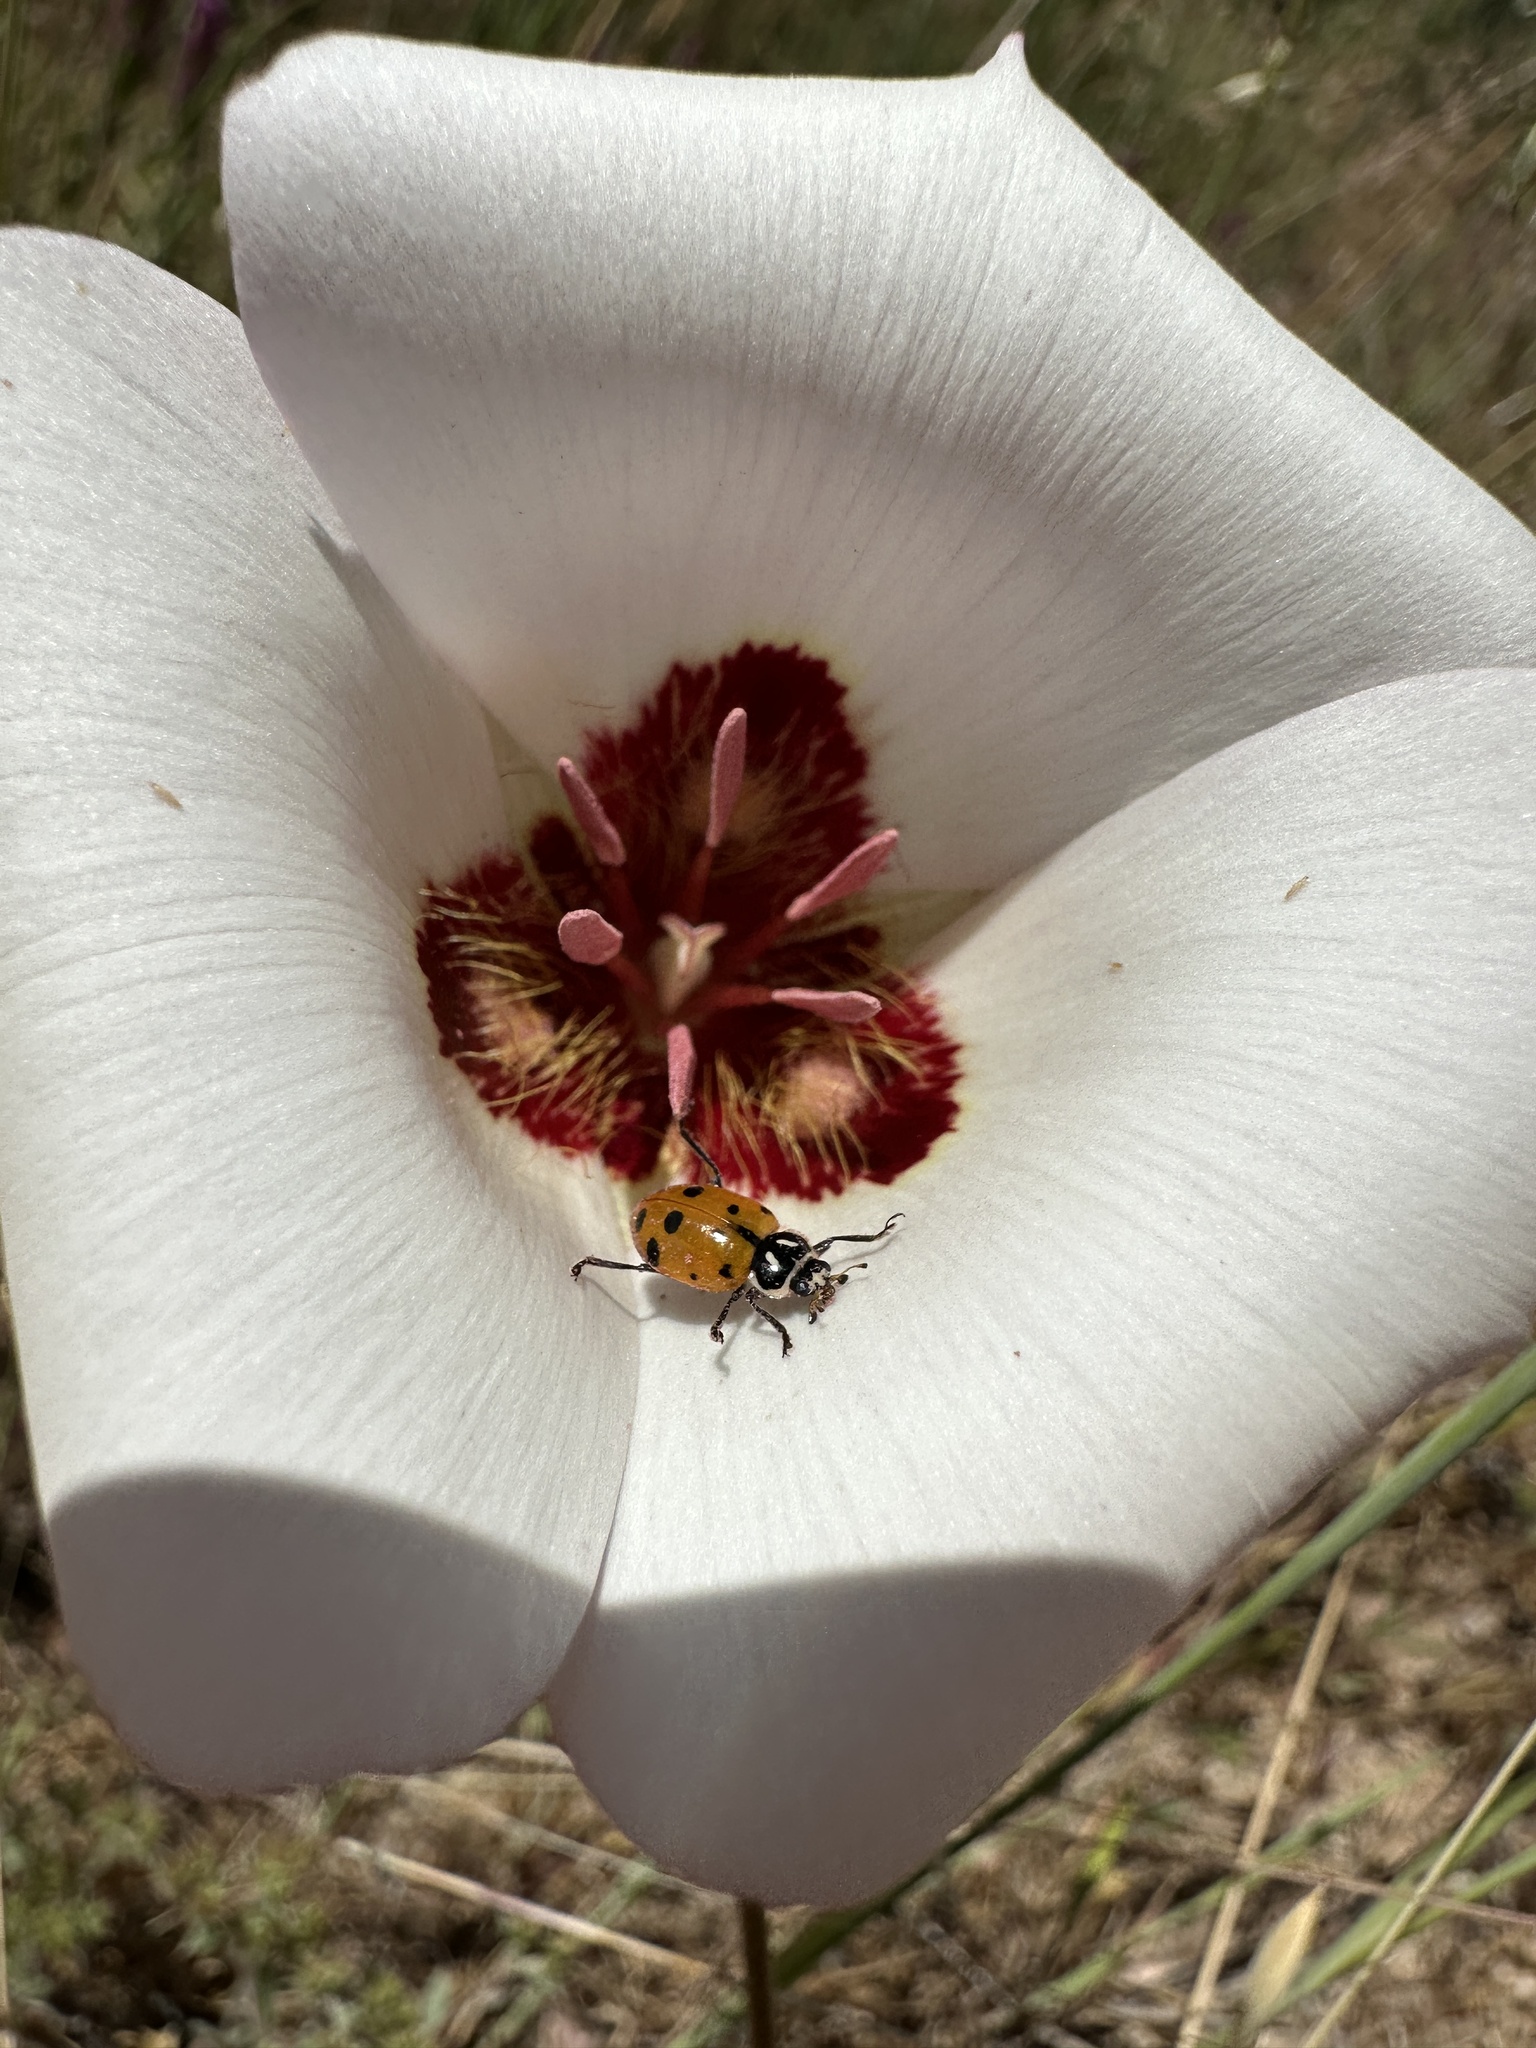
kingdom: Animalia
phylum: Arthropoda
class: Insecta
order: Coleoptera
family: Coccinellidae
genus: Hippodamia
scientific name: Hippodamia convergens
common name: Convergent lady beetle
